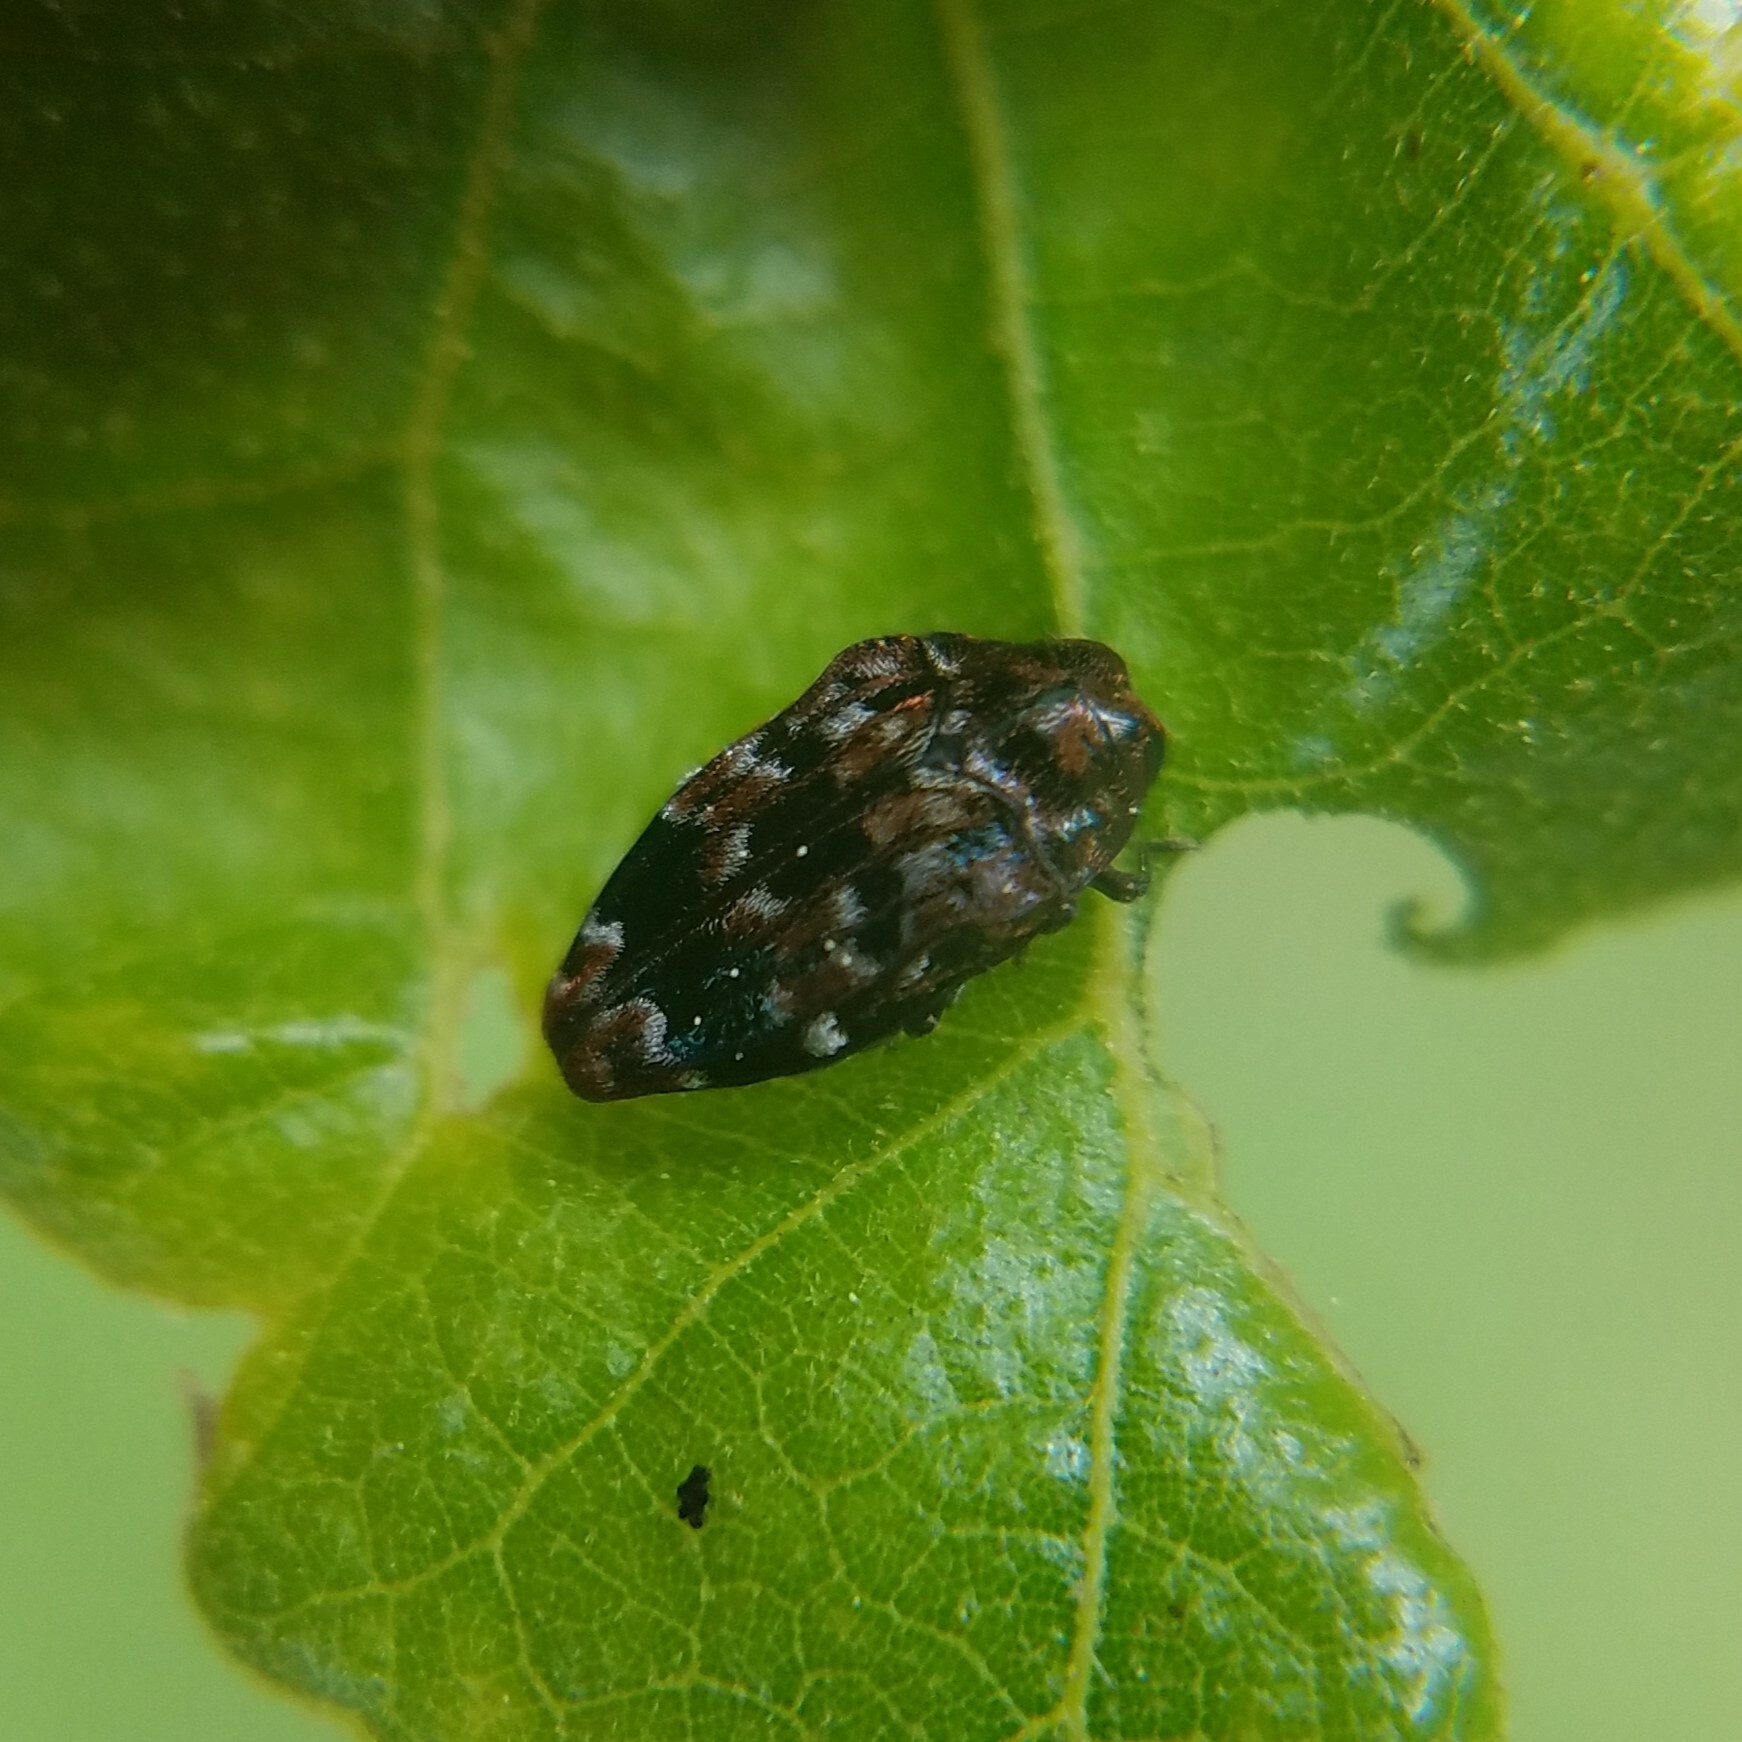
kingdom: Animalia
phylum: Arthropoda
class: Insecta
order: Coleoptera
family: Buprestidae
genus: Brachys
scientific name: Brachys ovatus
